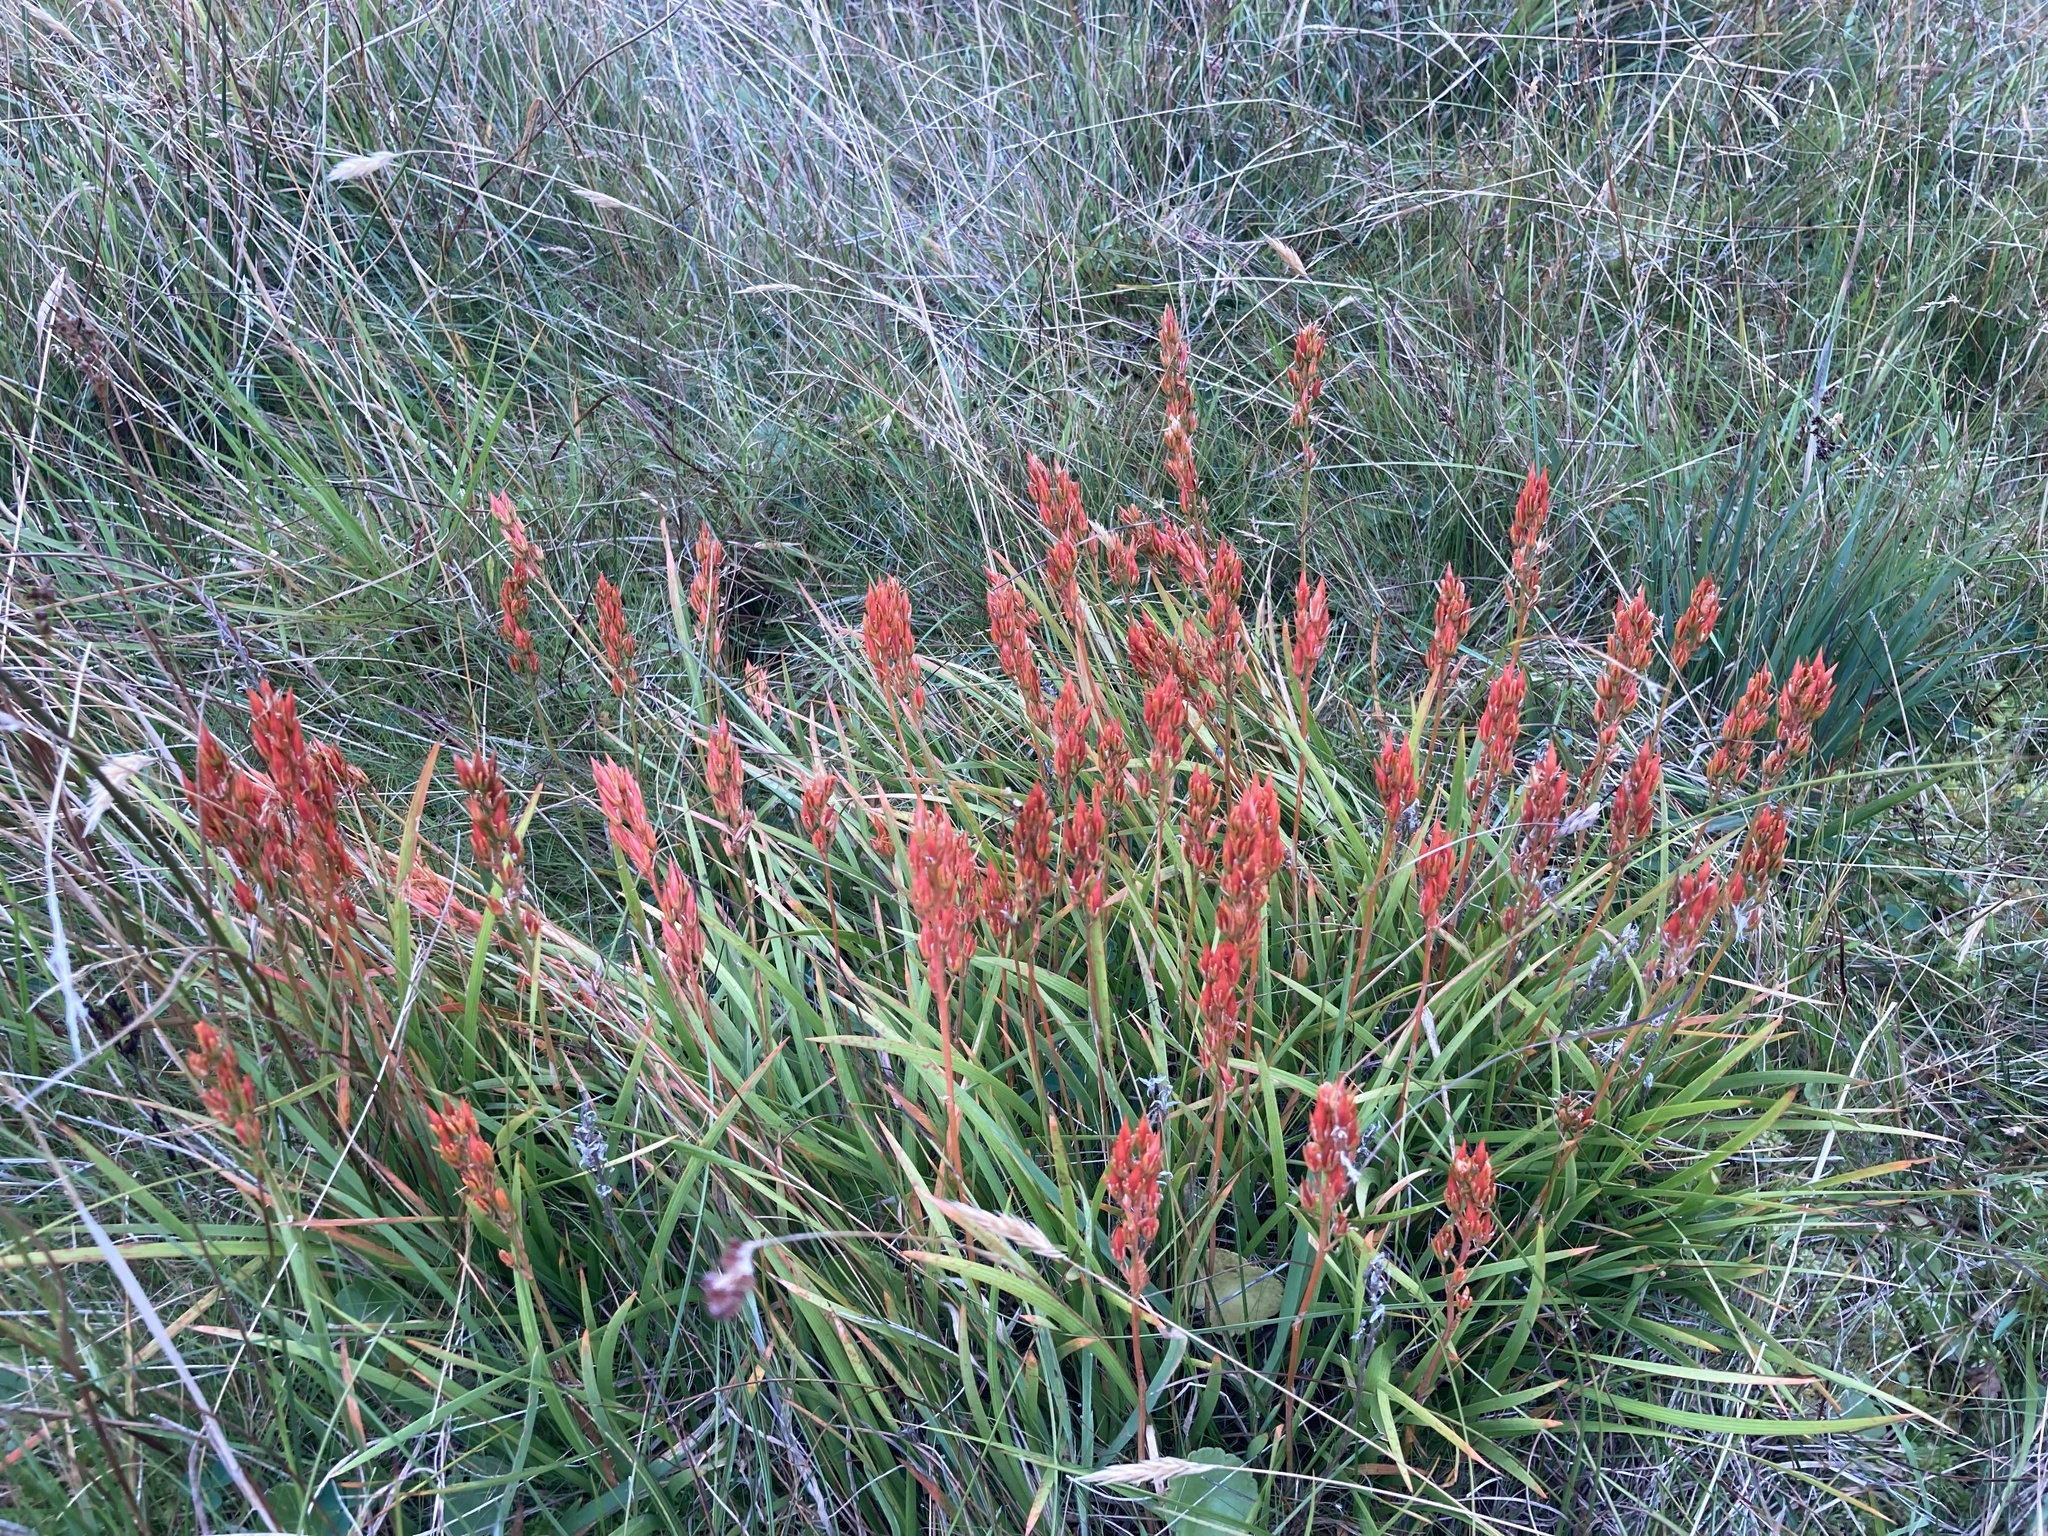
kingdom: Plantae
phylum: Tracheophyta
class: Liliopsida
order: Dioscoreales
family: Nartheciaceae
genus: Narthecium
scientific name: Narthecium ossifragum
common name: Bog asphodel
